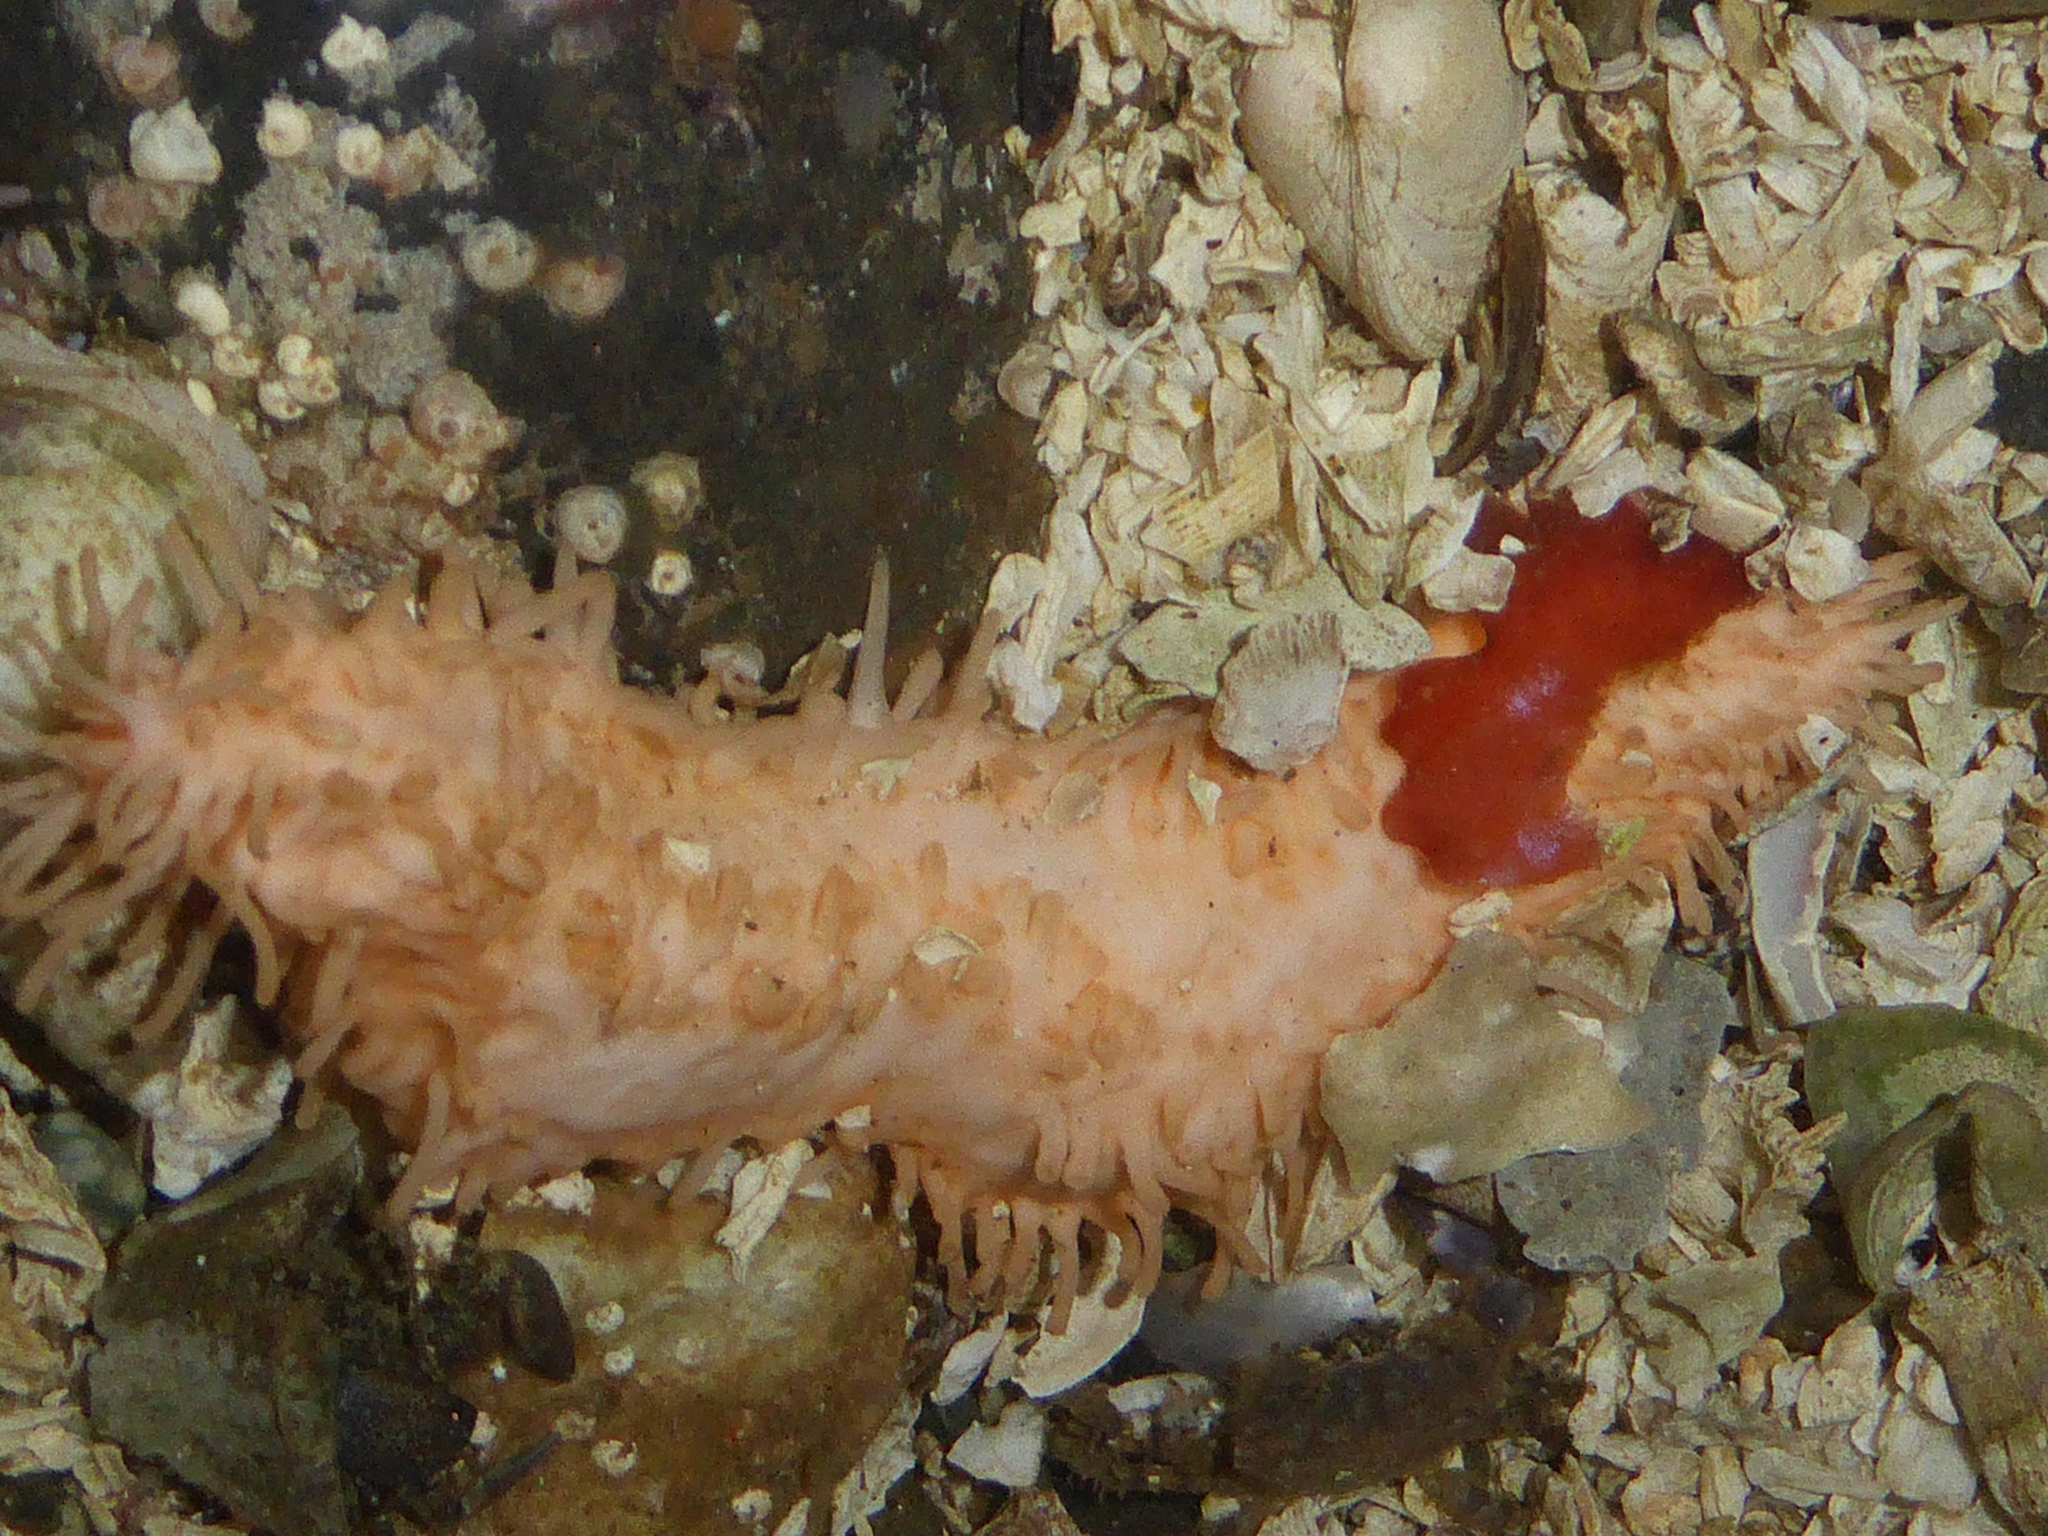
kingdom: Animalia
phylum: Echinodermata
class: Holothuroidea
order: Dendrochirotida
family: Sclerodactylidae
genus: Eupentacta
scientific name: Eupentacta quinquesemita
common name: Pentamerous sea cucumber
